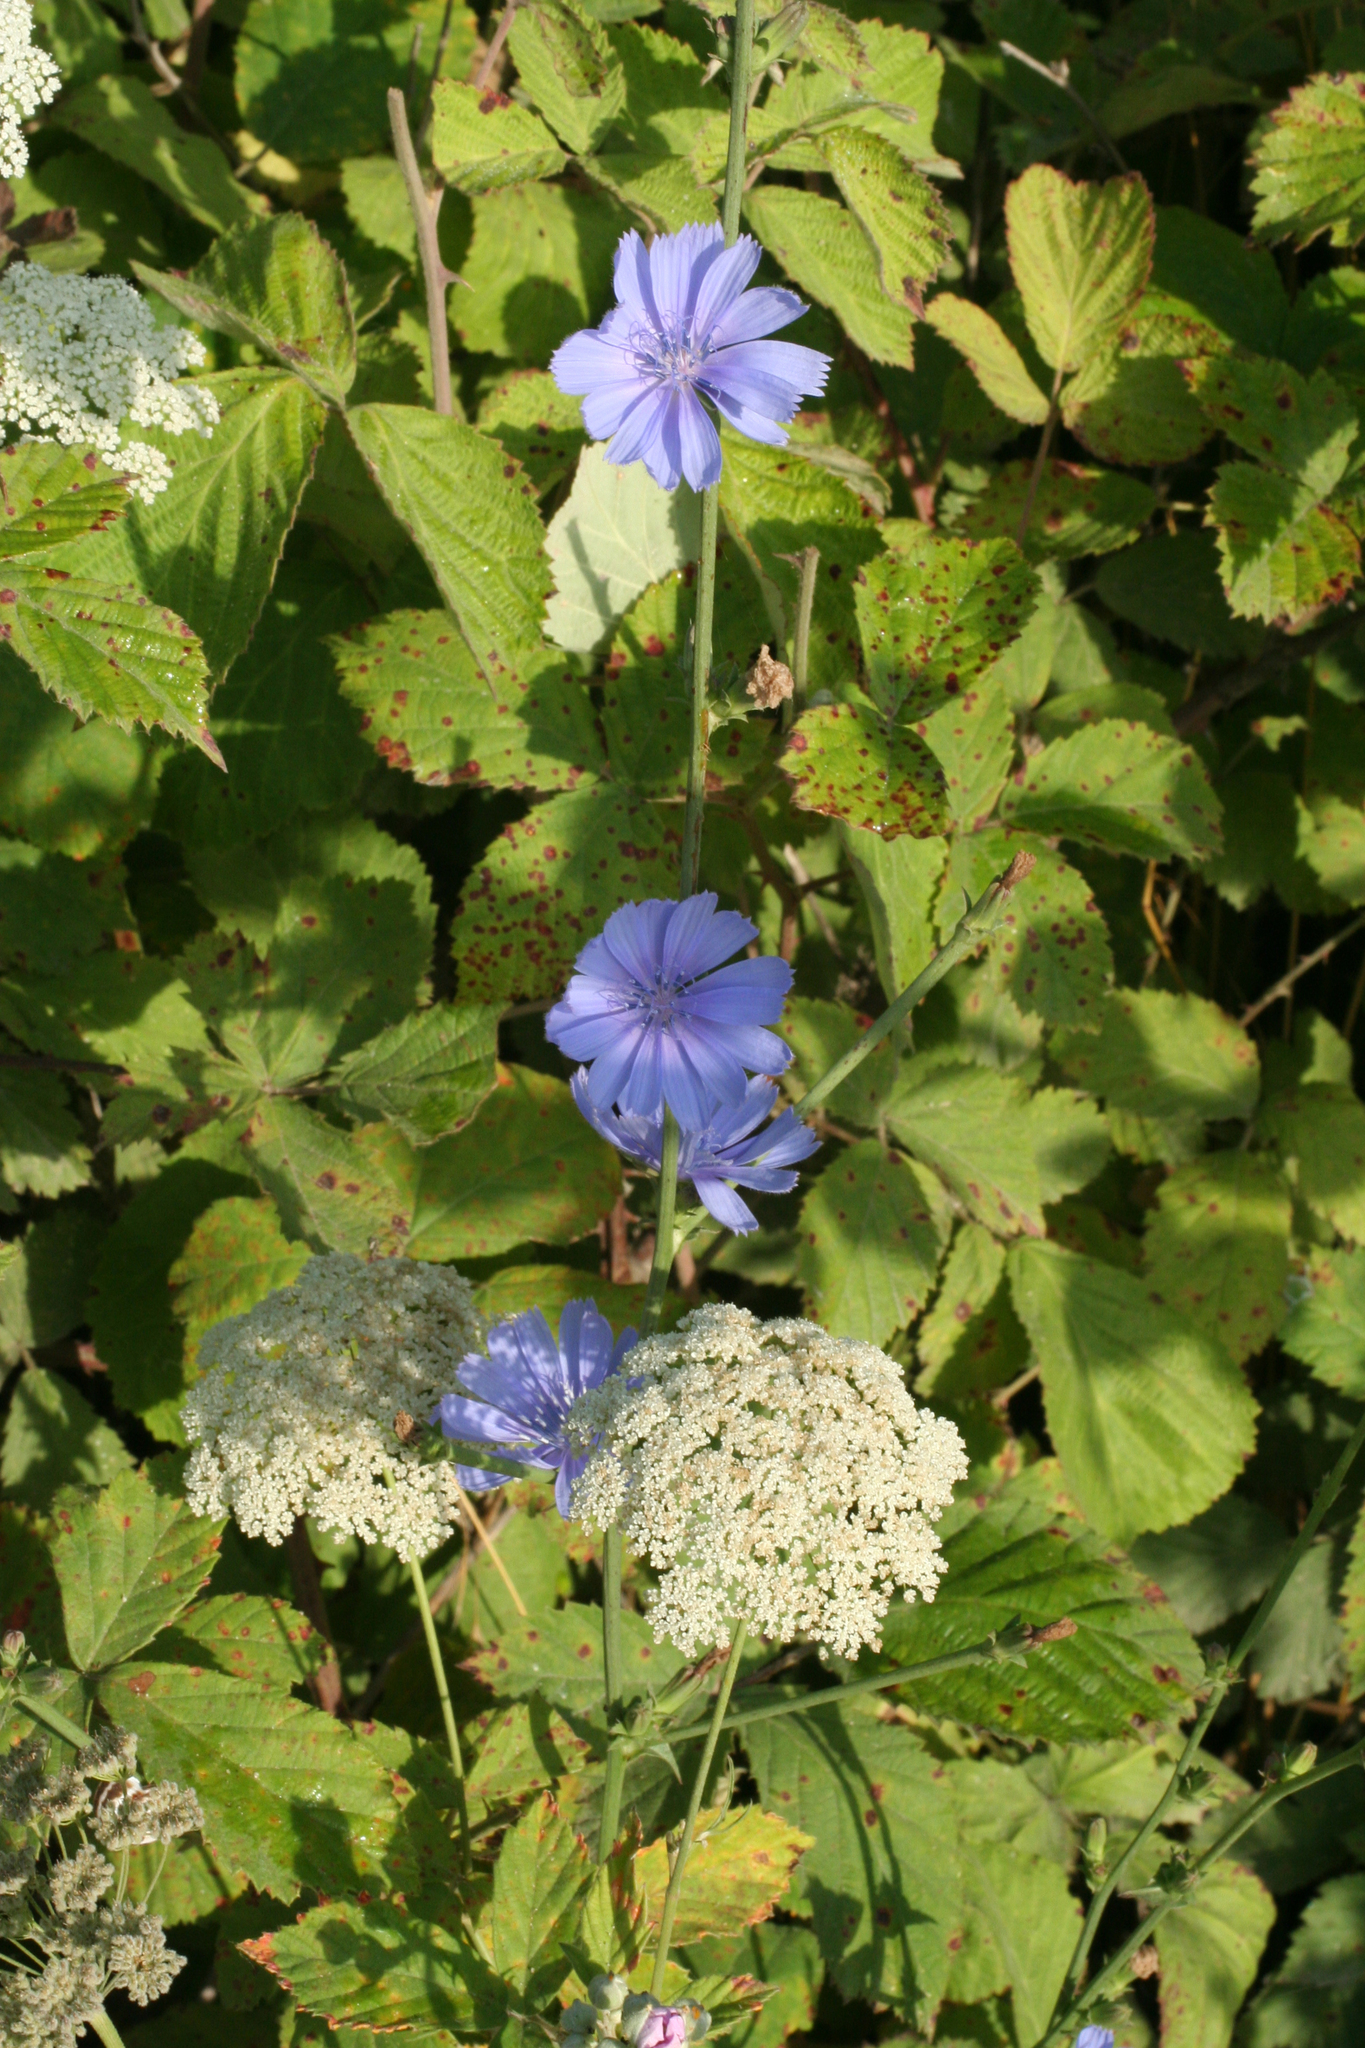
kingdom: Plantae
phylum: Tracheophyta
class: Magnoliopsida
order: Asterales
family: Asteraceae
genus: Cichorium
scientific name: Cichorium intybus
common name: Chicory
